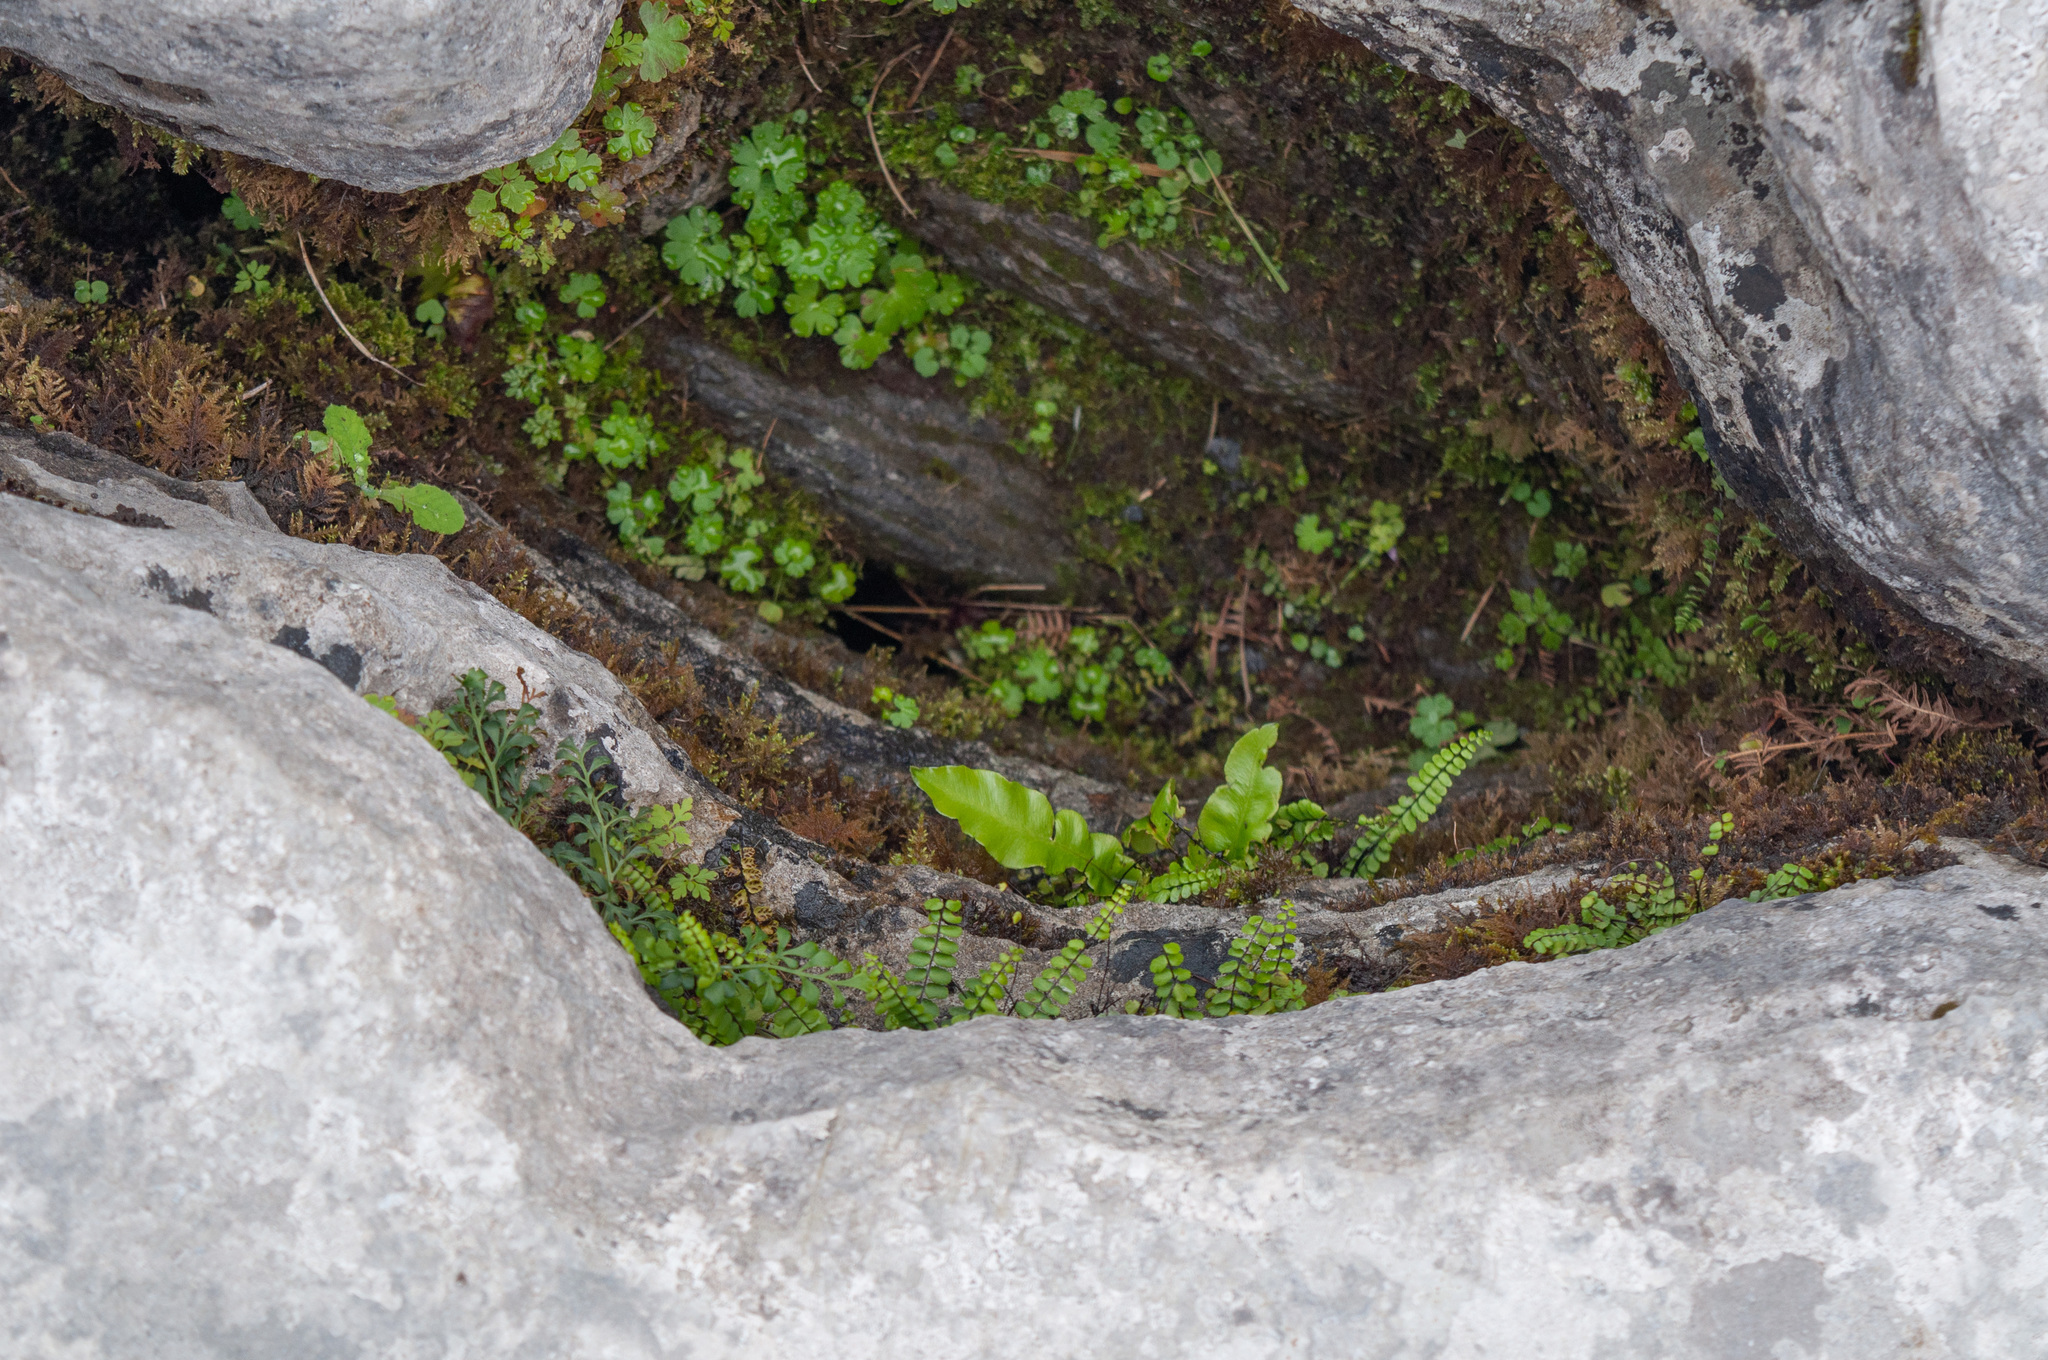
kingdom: Plantae
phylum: Tracheophyta
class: Magnoliopsida
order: Geraniales
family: Geraniaceae
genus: Geranium
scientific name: Geranium lucidum
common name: Shining crane's-bill
